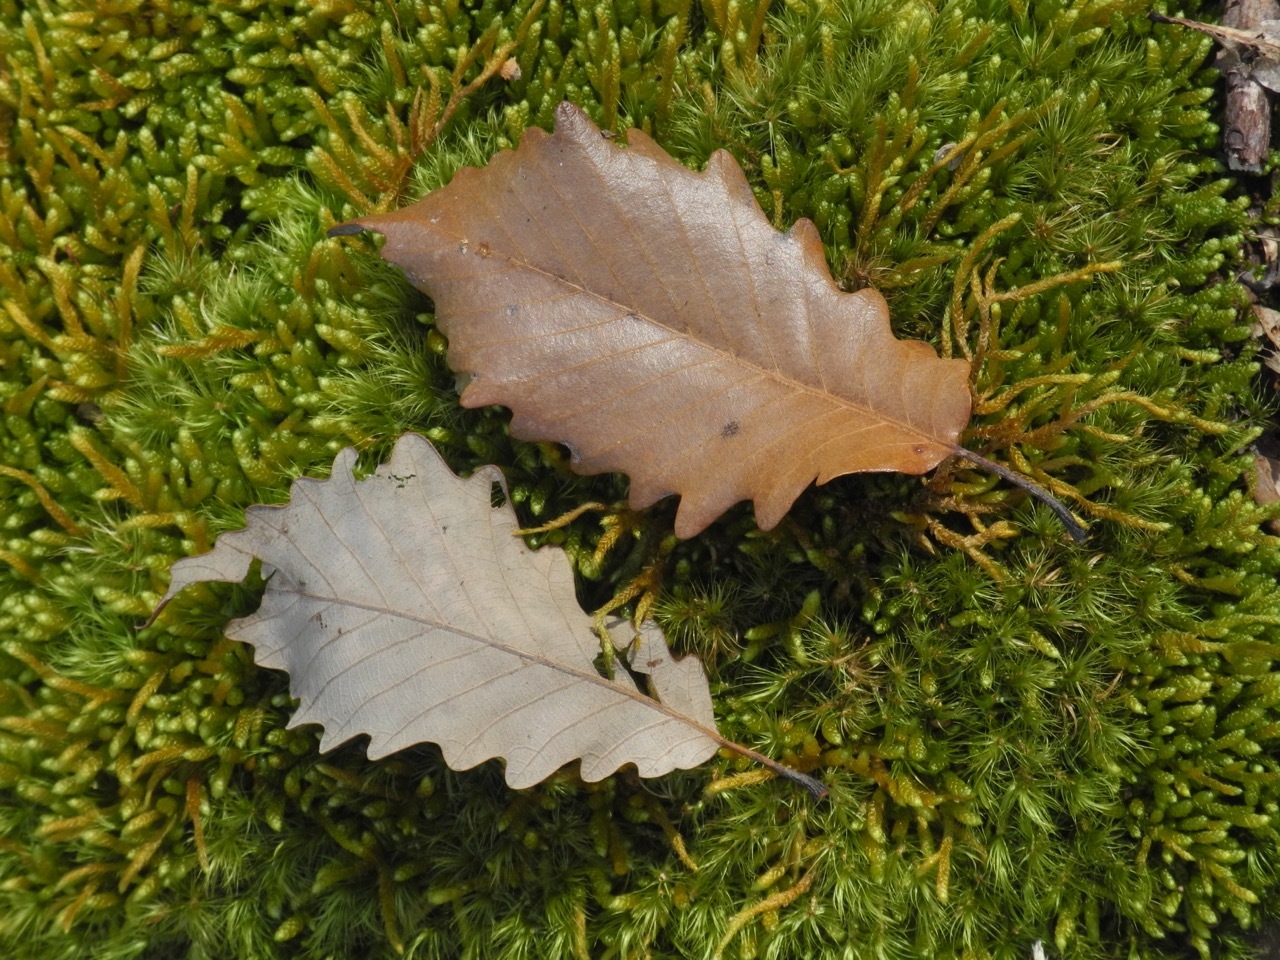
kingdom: Plantae
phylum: Tracheophyta
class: Magnoliopsida
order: Fagales
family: Fagaceae
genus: Quercus
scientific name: Quercus michauxii
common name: Swamp chestnut oak
